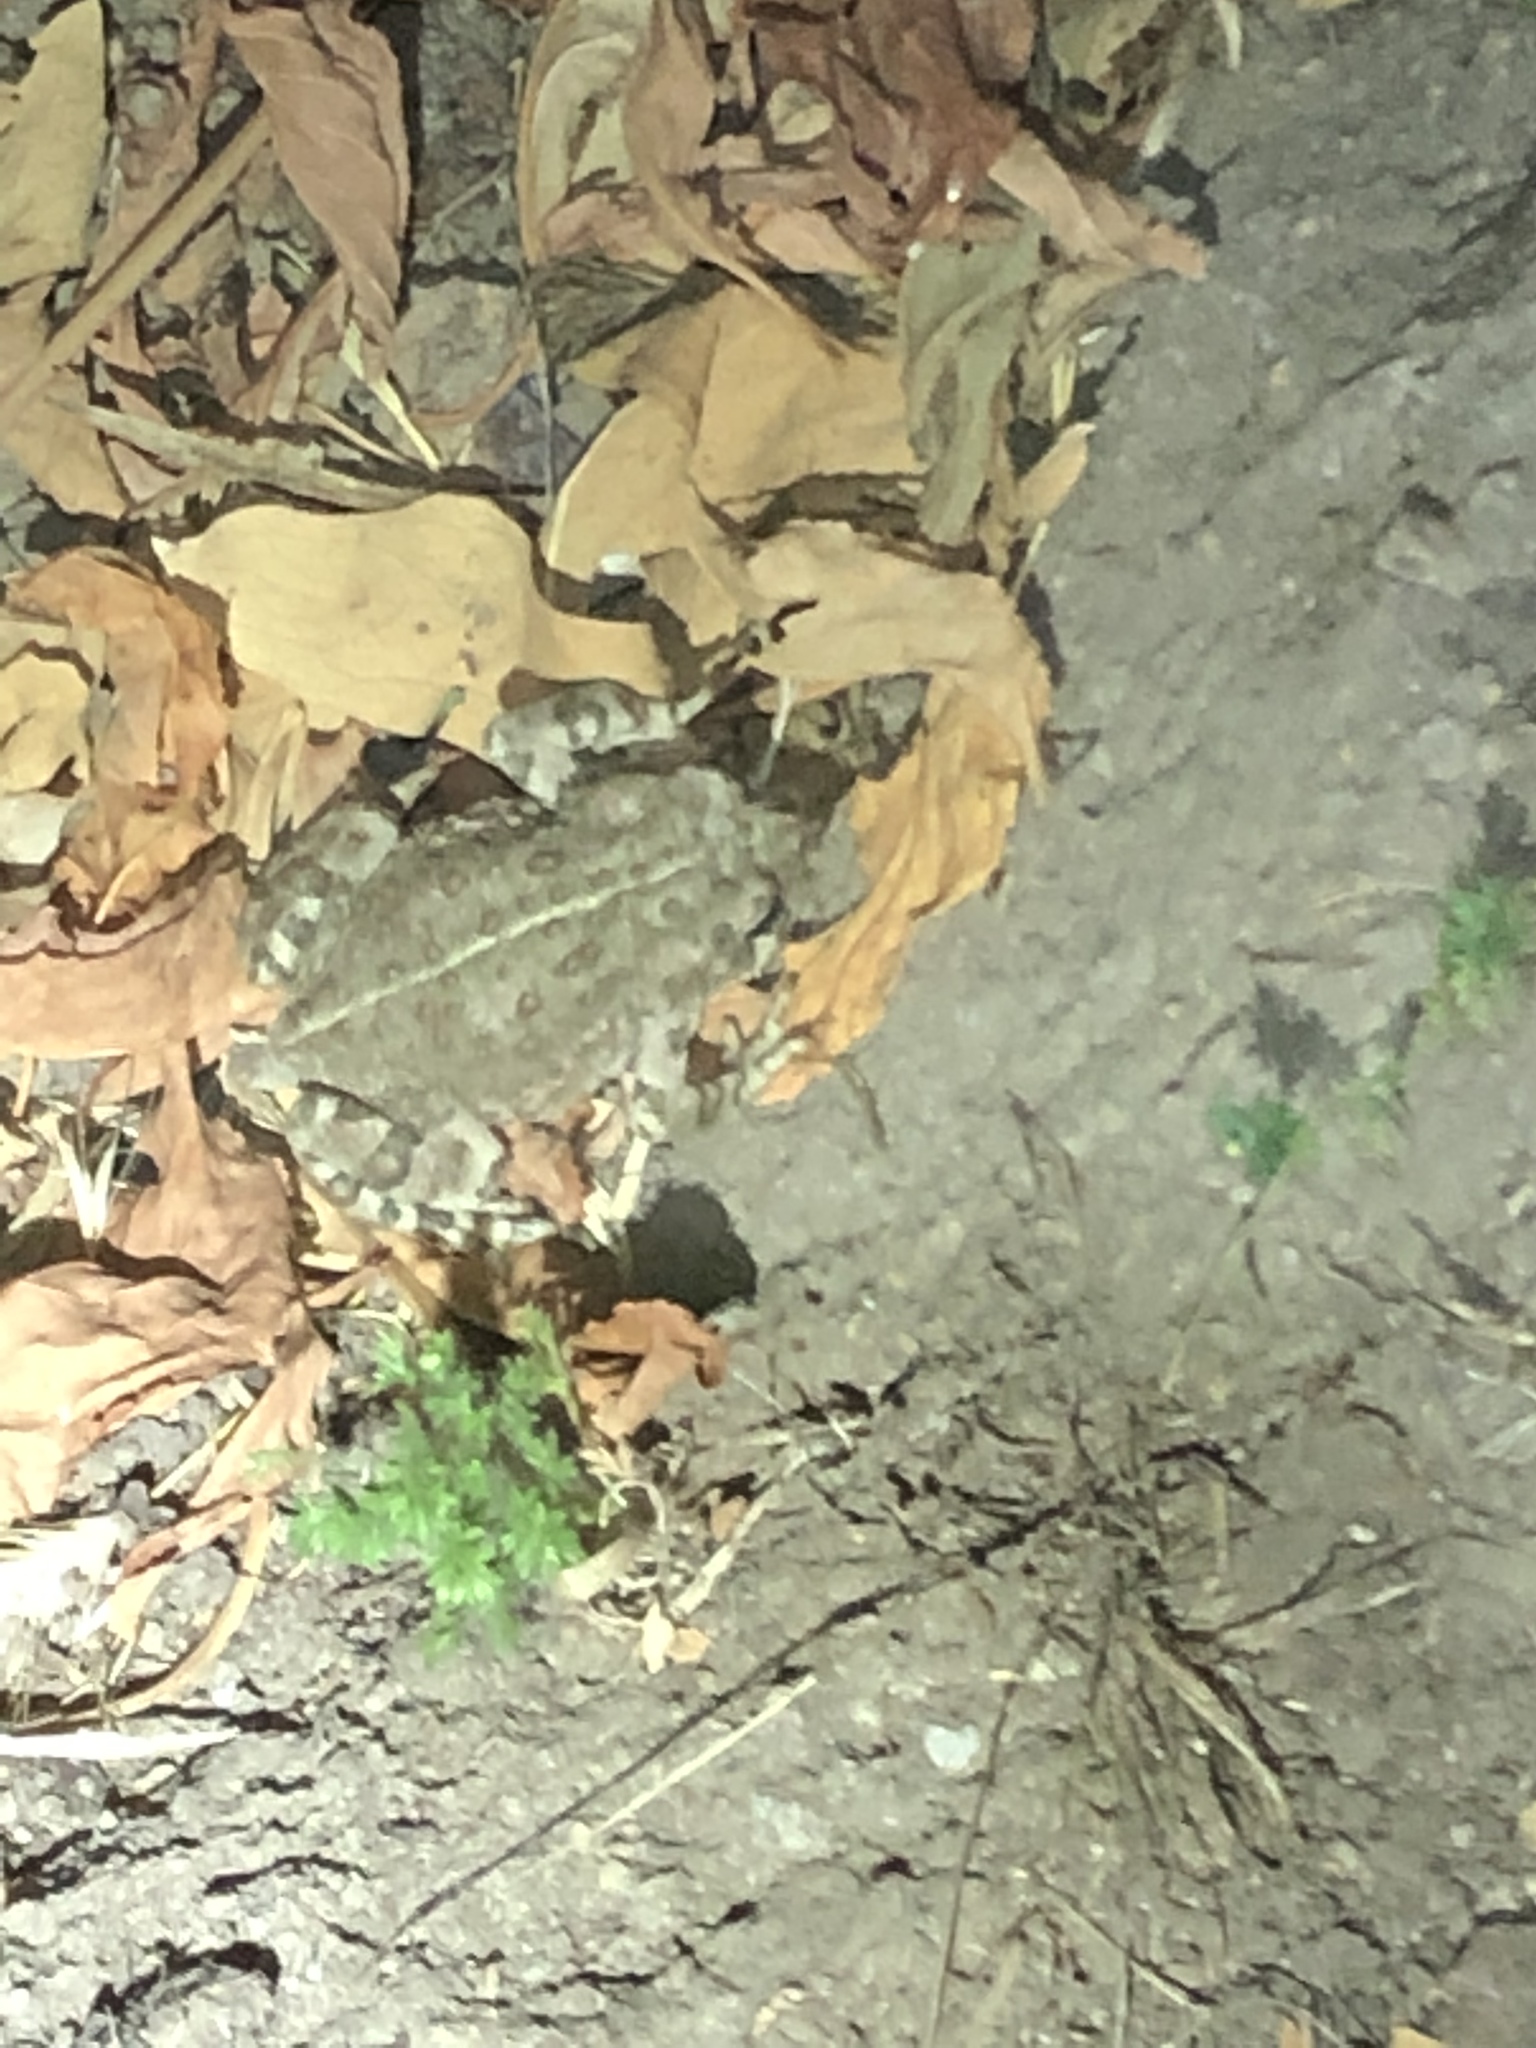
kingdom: Animalia
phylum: Chordata
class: Amphibia
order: Anura
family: Bufonidae
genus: Anaxyrus
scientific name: Anaxyrus boreas
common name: Western toad
